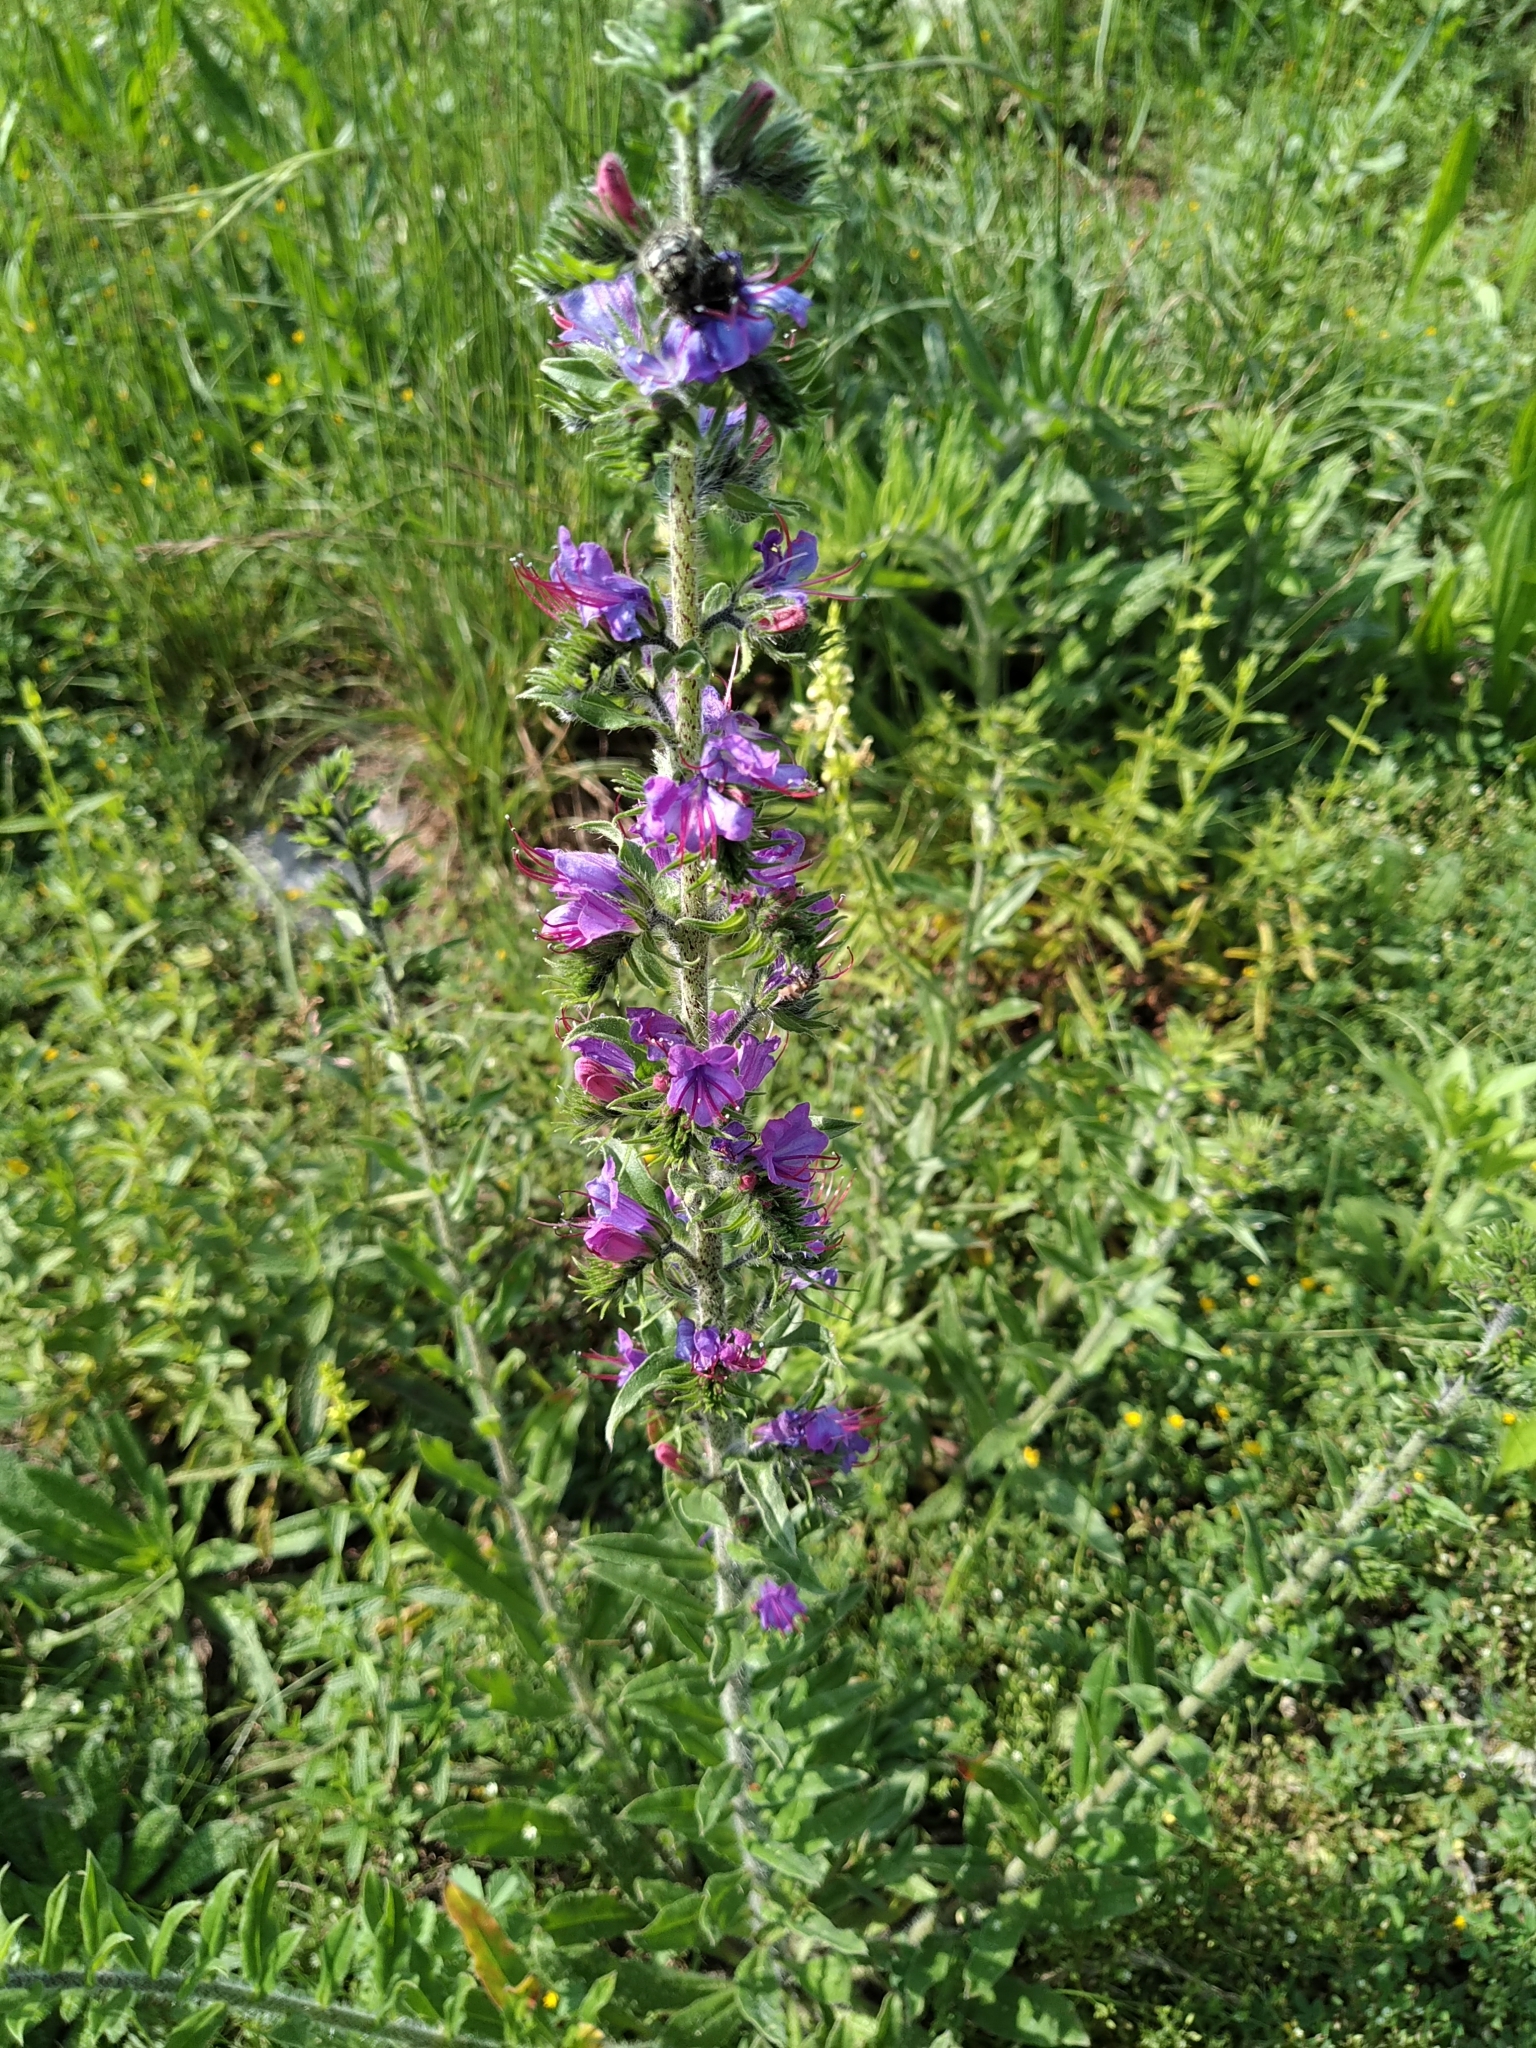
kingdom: Plantae
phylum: Tracheophyta
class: Magnoliopsida
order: Boraginales
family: Boraginaceae
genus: Echium
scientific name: Echium vulgare
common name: Common viper's bugloss
